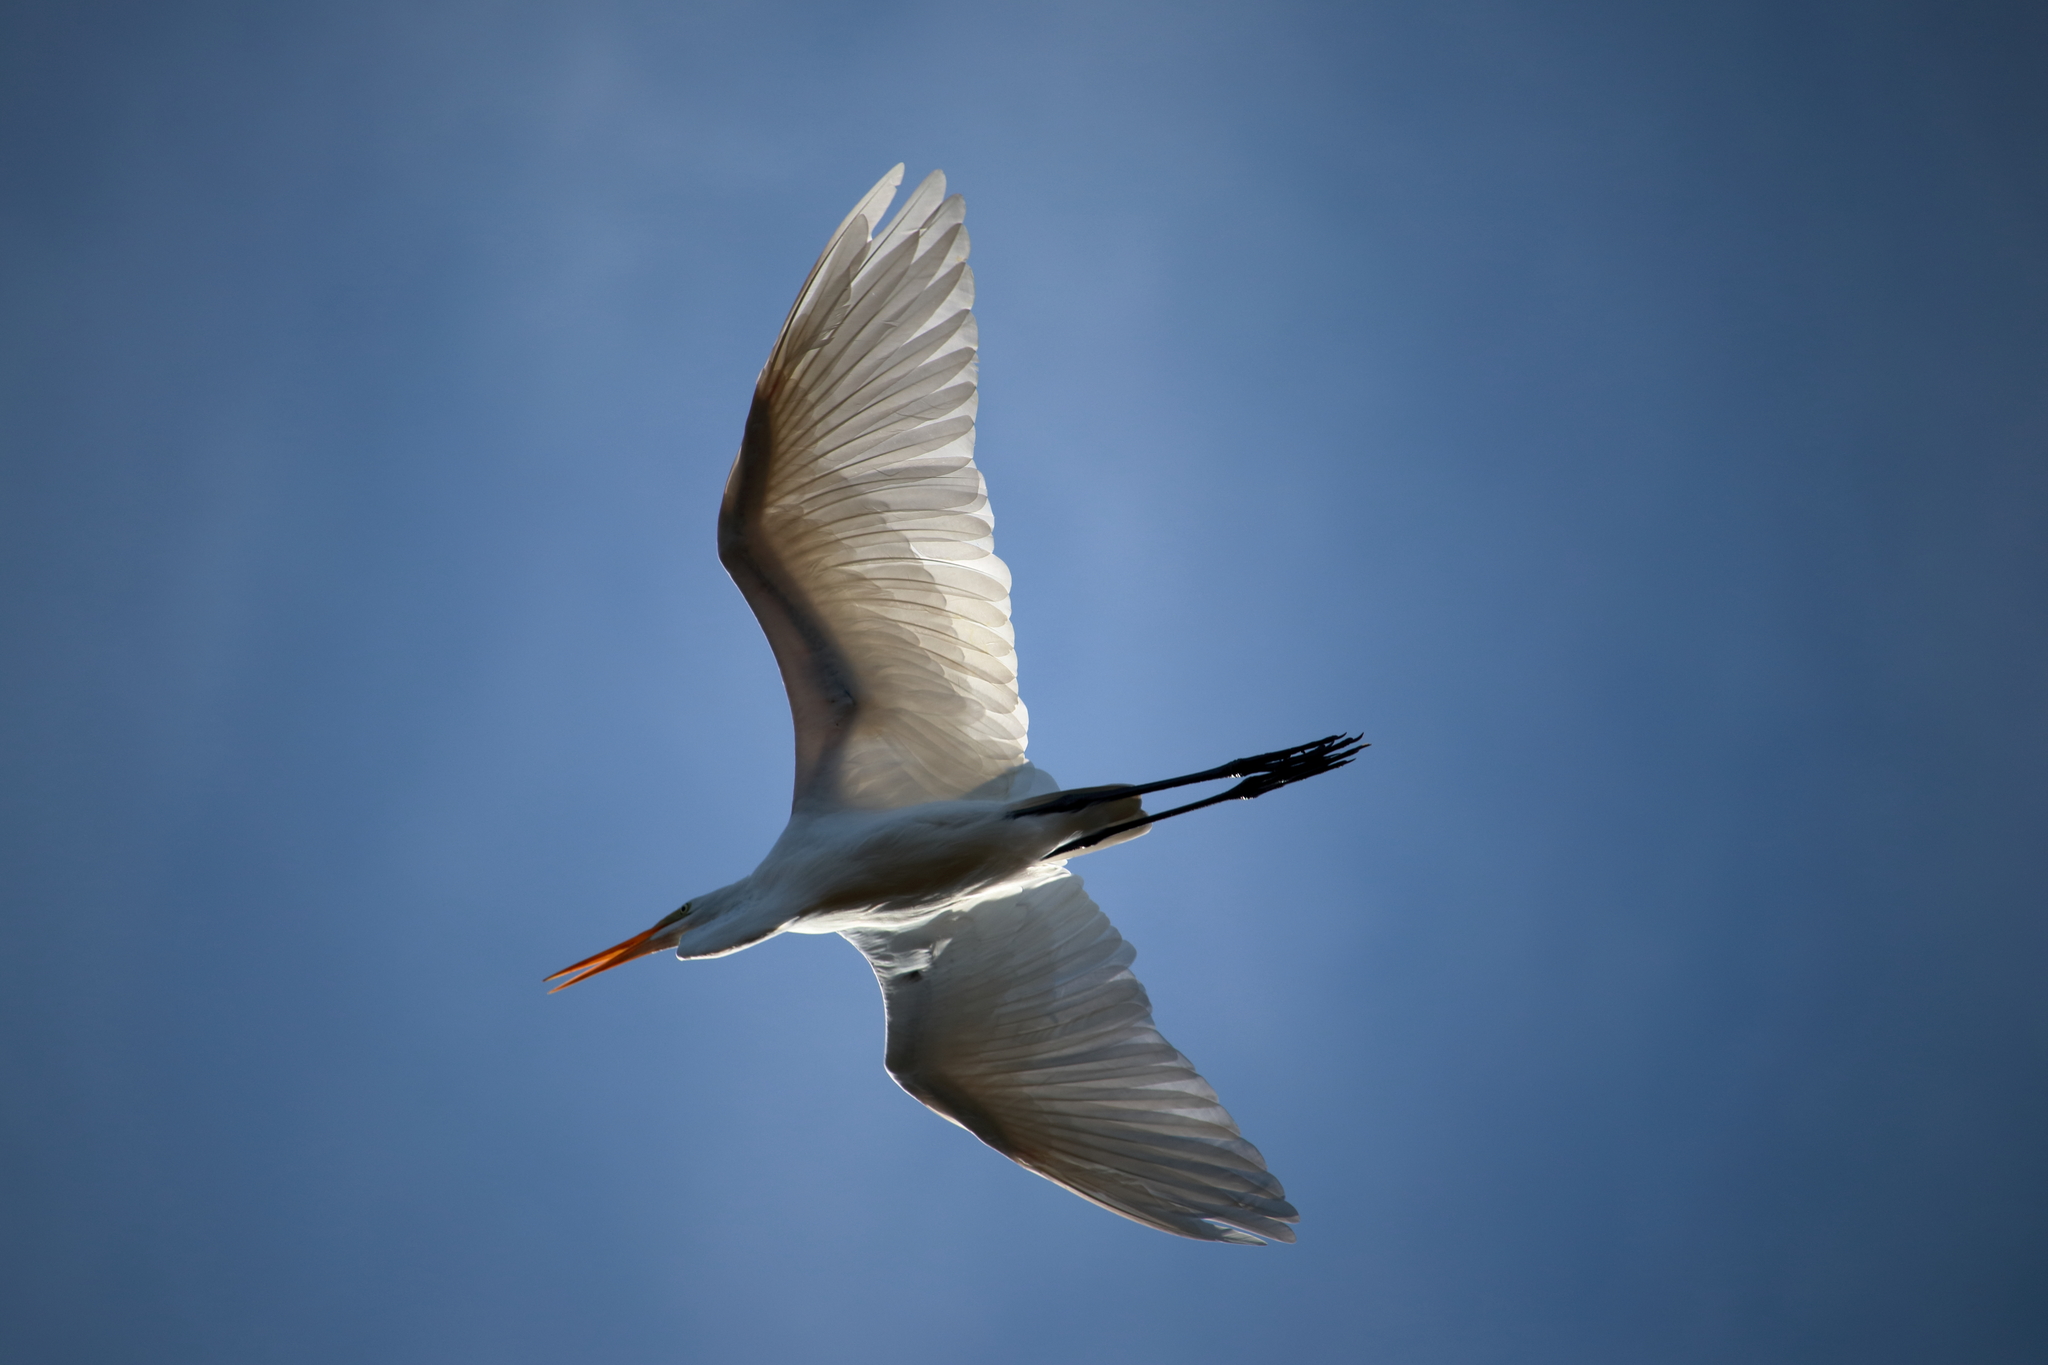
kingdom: Animalia
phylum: Chordata
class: Aves
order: Pelecaniformes
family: Ardeidae
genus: Ardea
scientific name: Ardea alba
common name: Great egret
